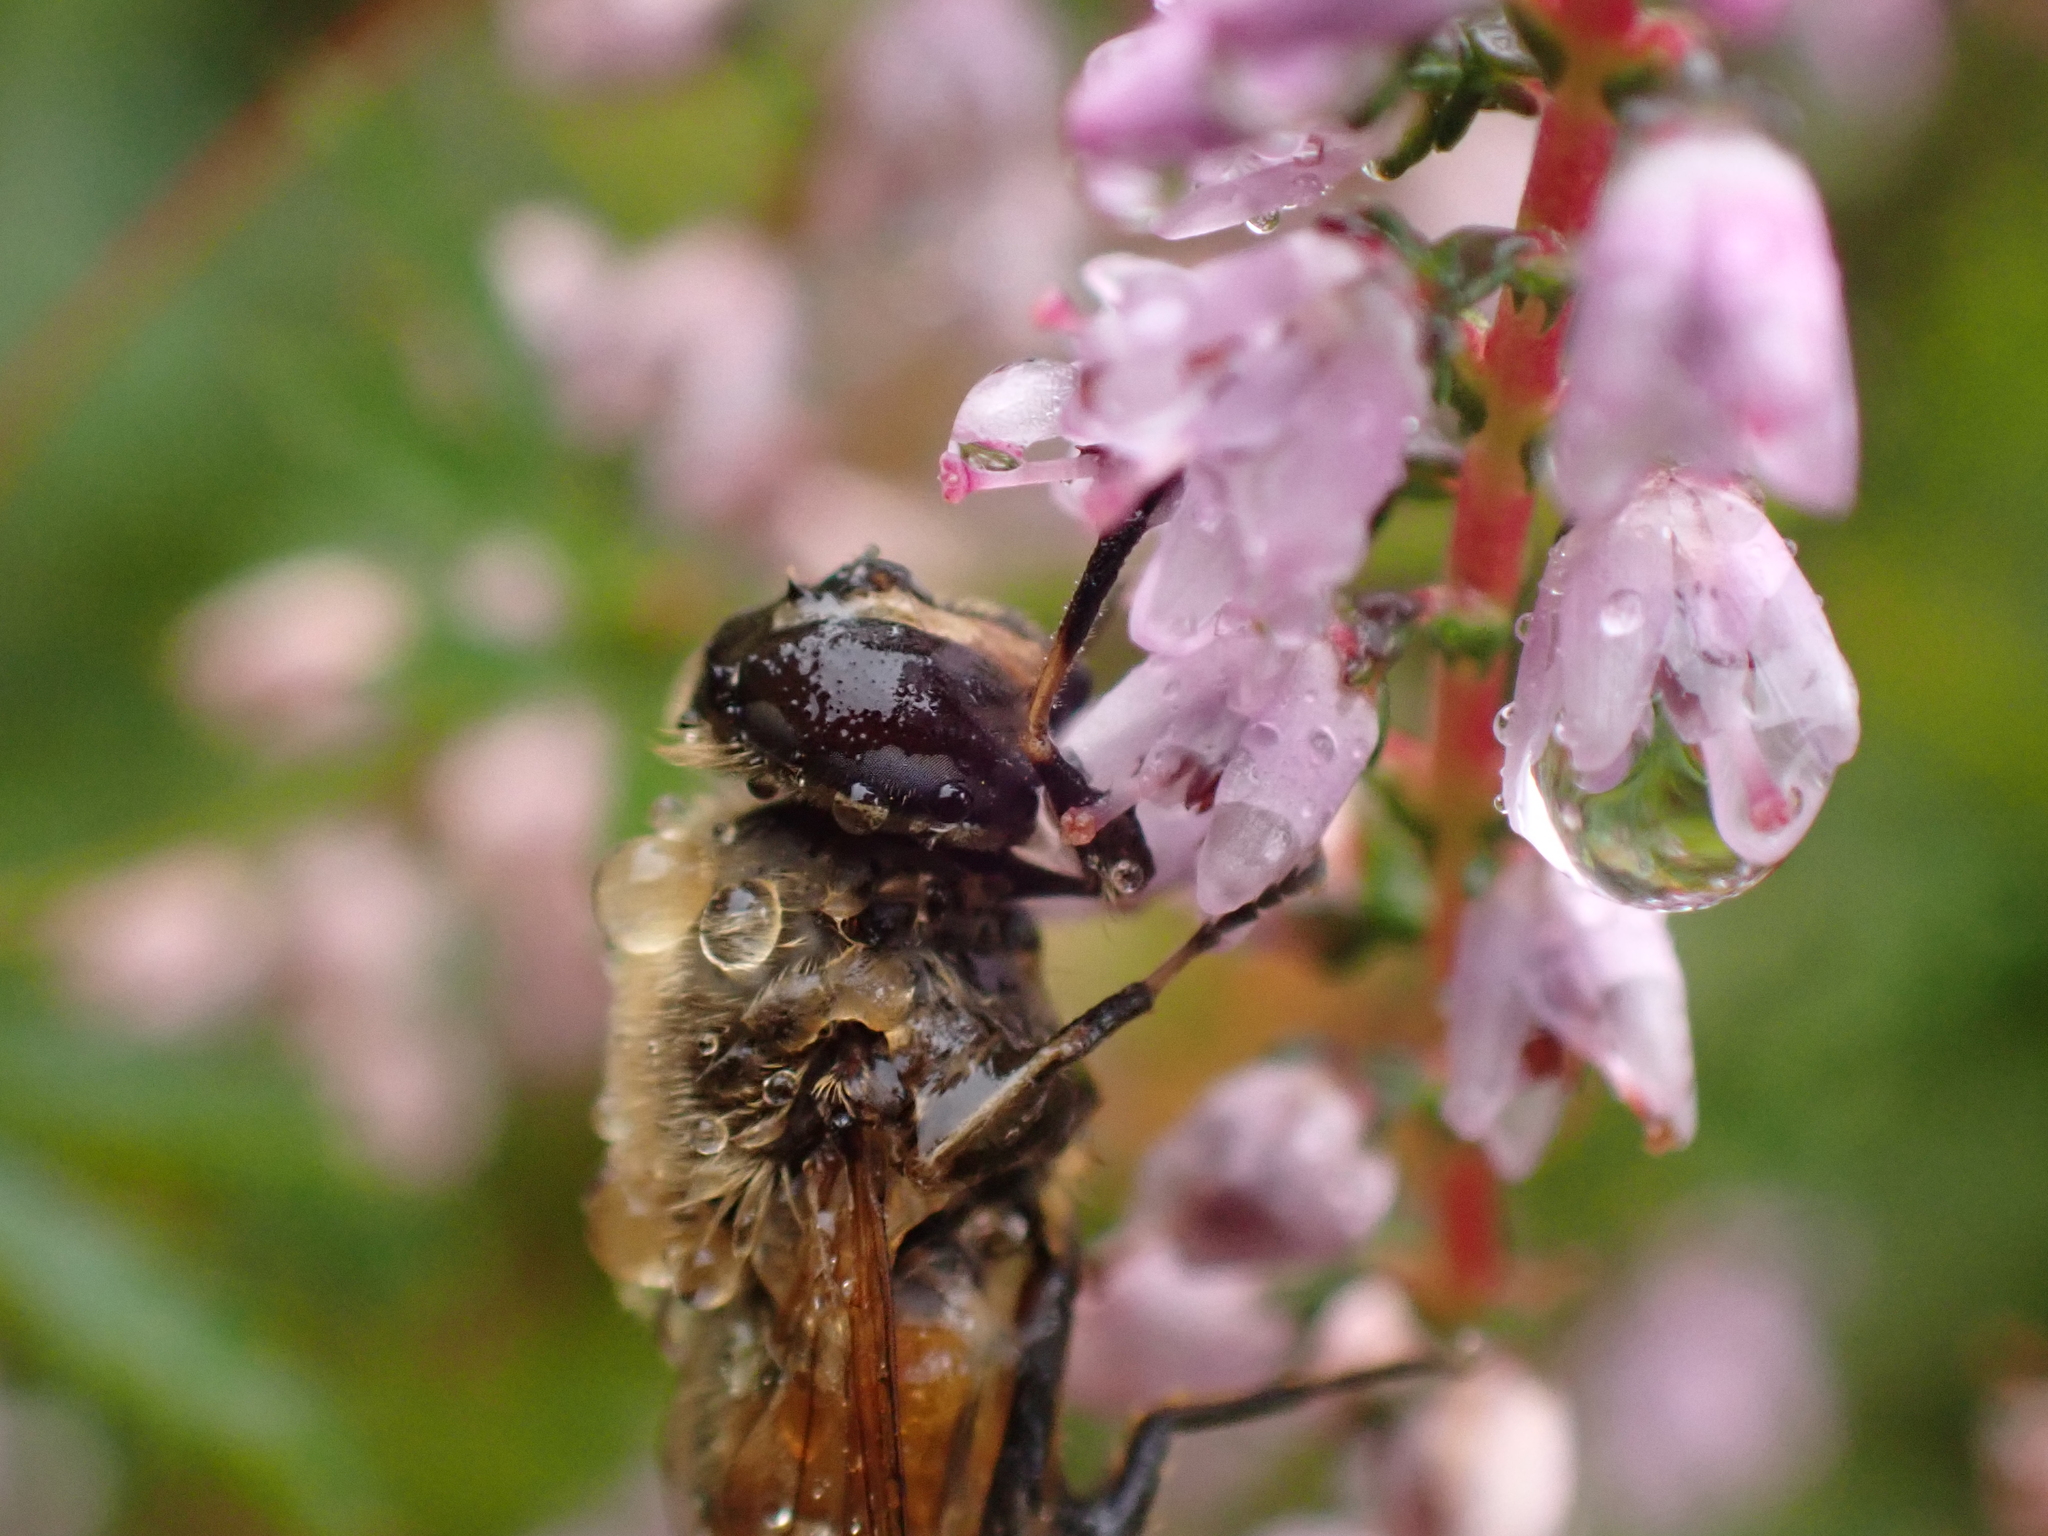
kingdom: Animalia
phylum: Arthropoda
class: Insecta
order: Diptera
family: Syrphidae
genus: Eristalis
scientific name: Eristalis tenax
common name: Drone fly
